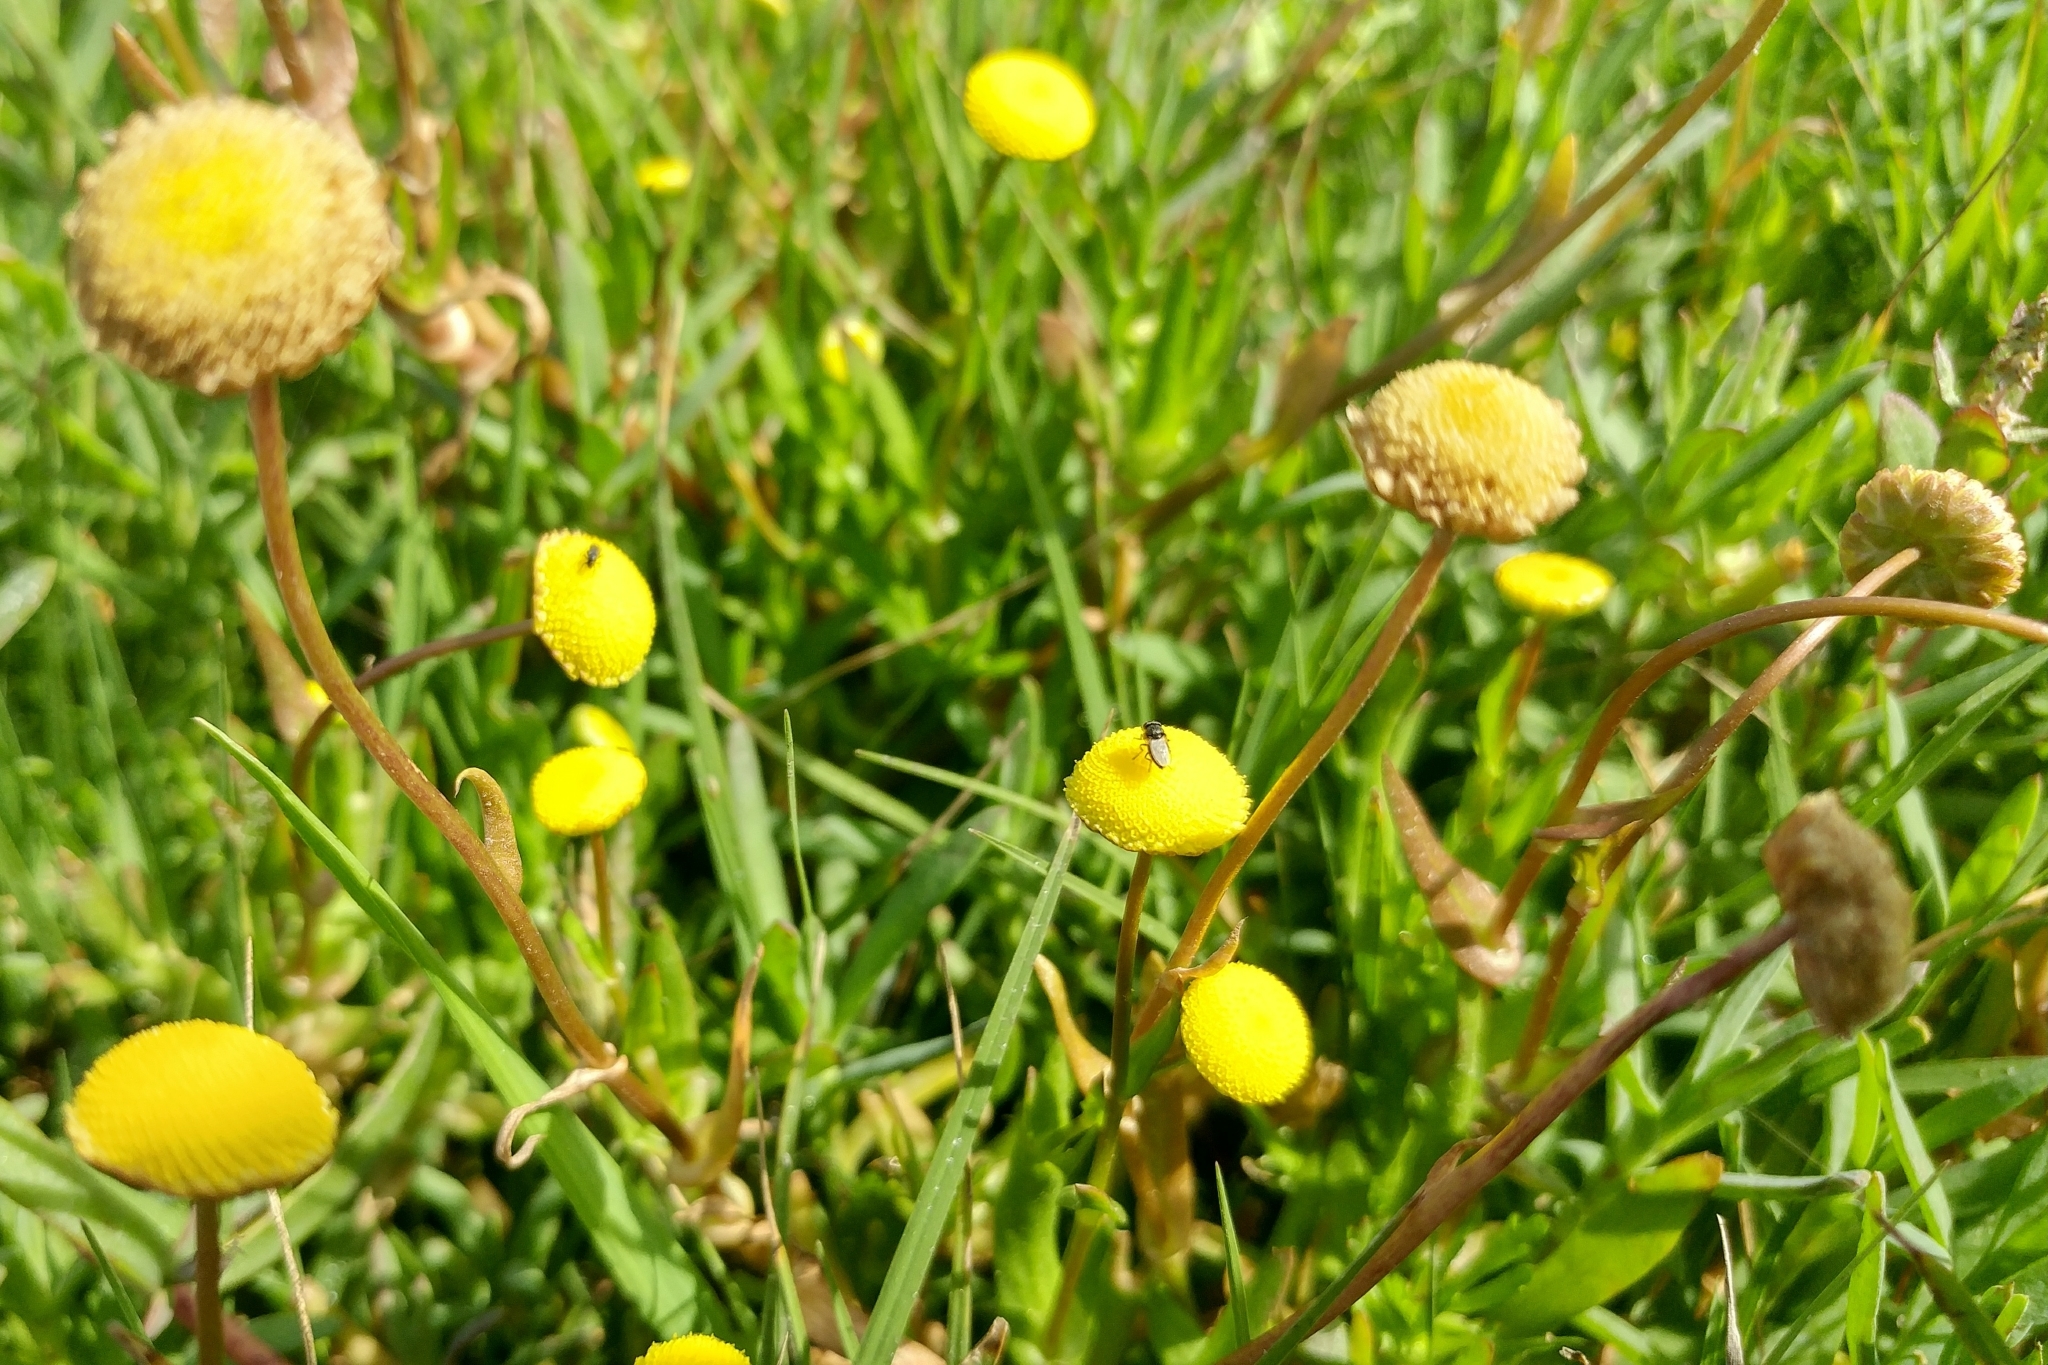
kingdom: Plantae
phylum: Tracheophyta
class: Magnoliopsida
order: Asterales
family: Asteraceae
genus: Cotula
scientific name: Cotula coronopifolia
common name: Buttonweed
